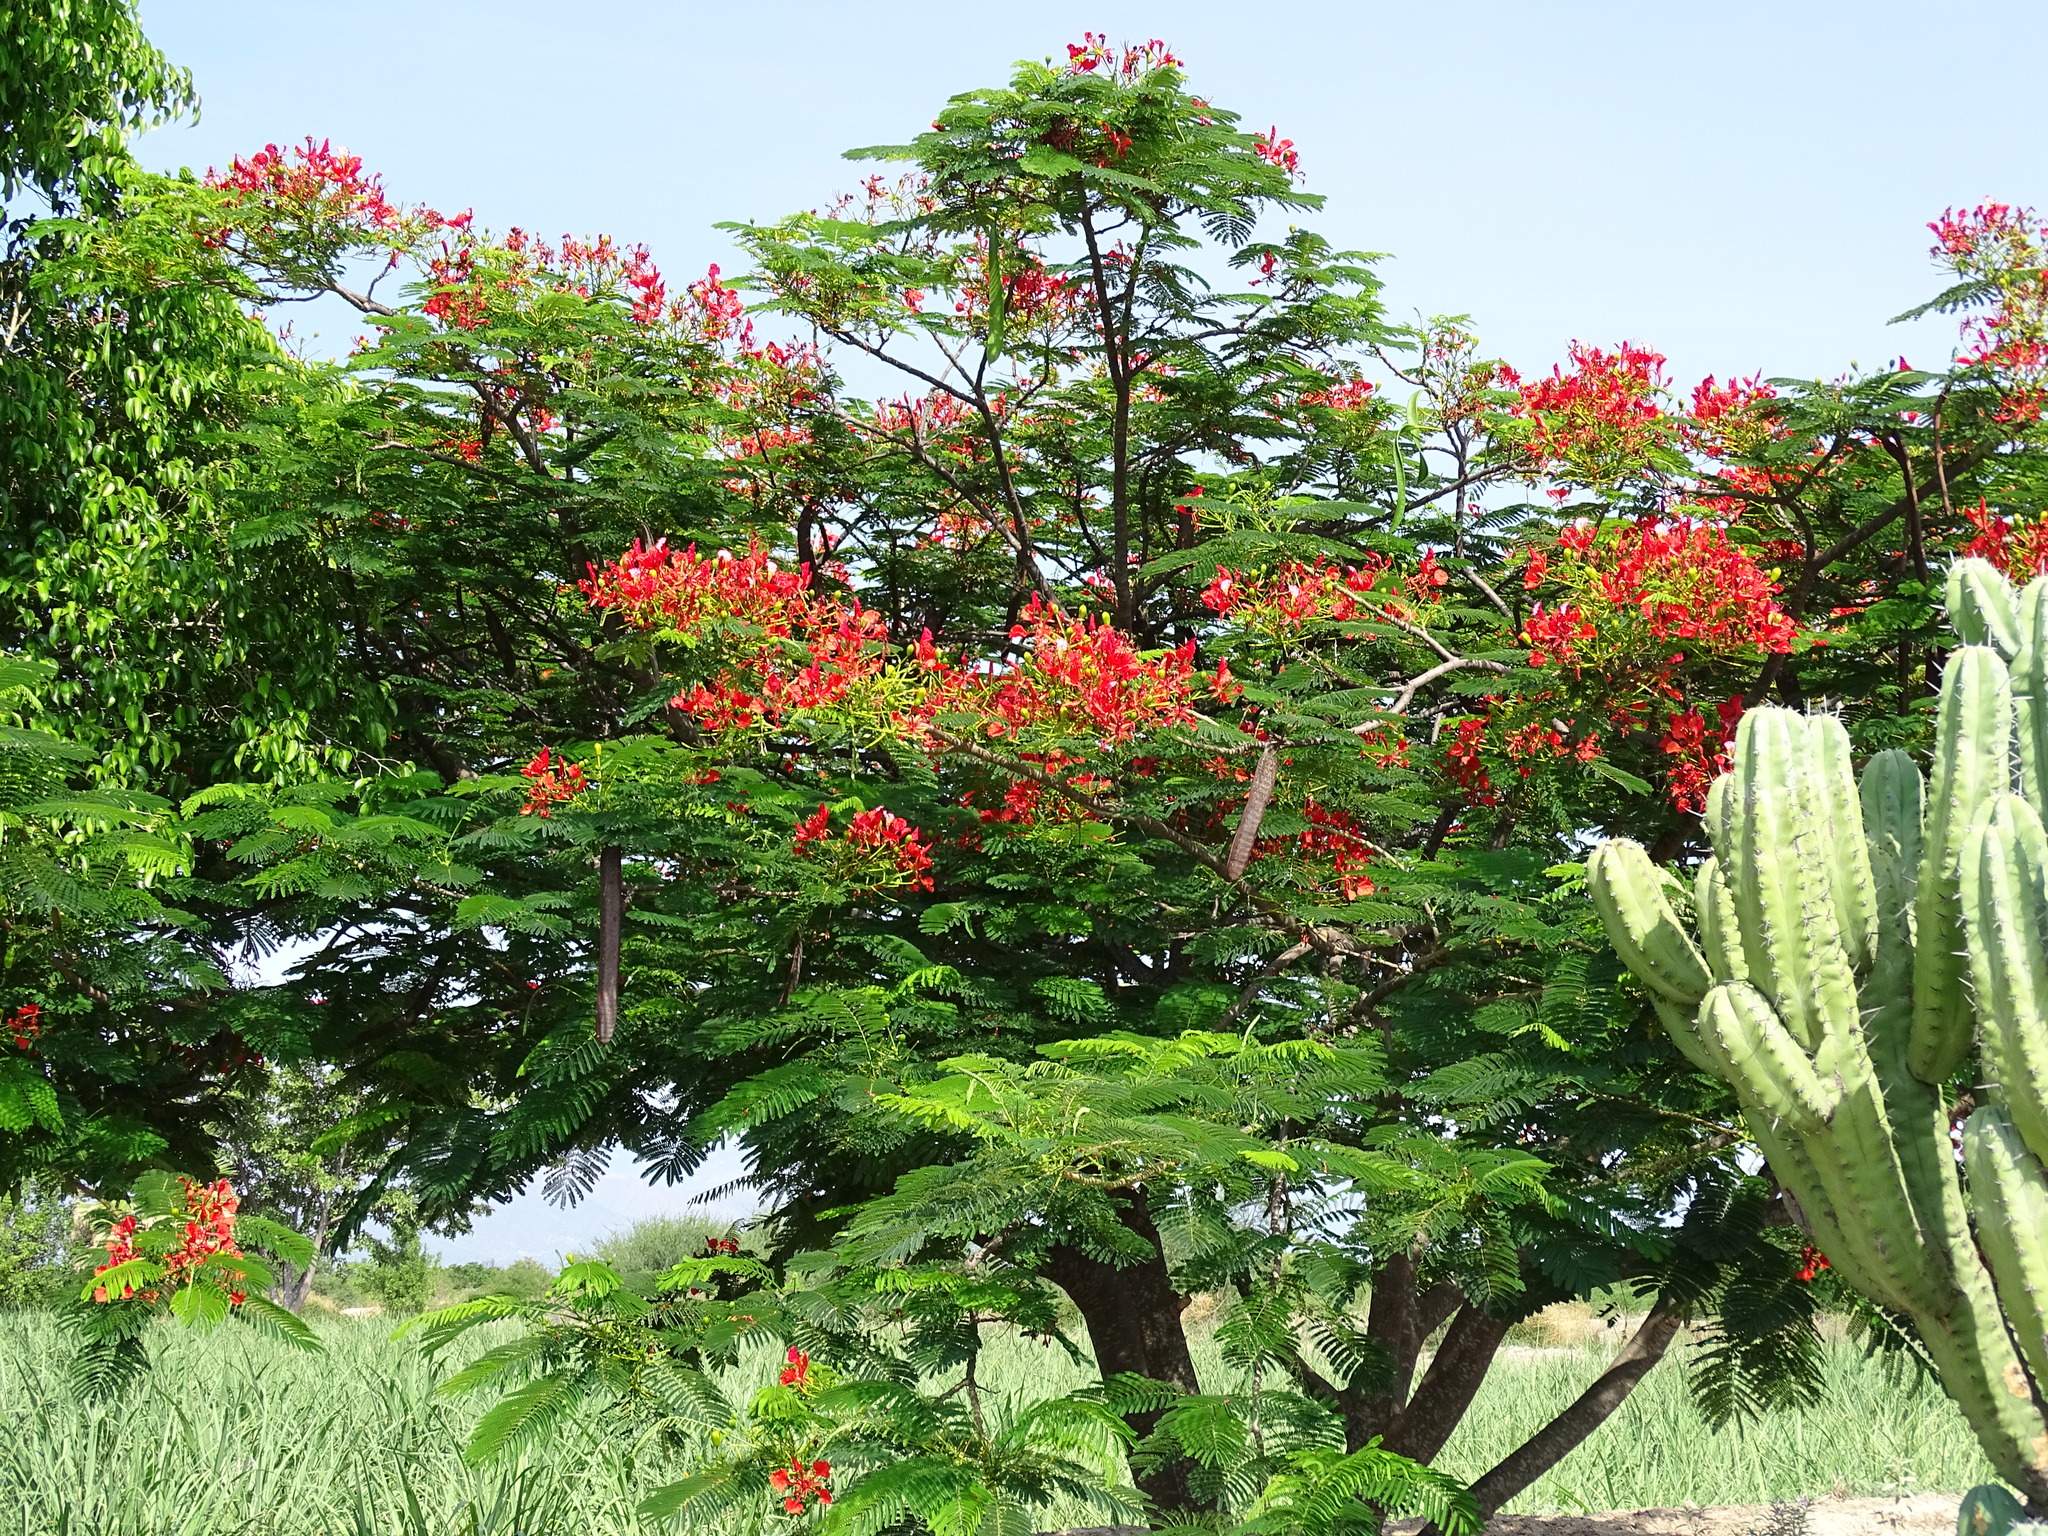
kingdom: Plantae
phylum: Tracheophyta
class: Magnoliopsida
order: Fabales
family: Fabaceae
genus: Delonix
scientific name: Delonix regia
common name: Royal poinciana
